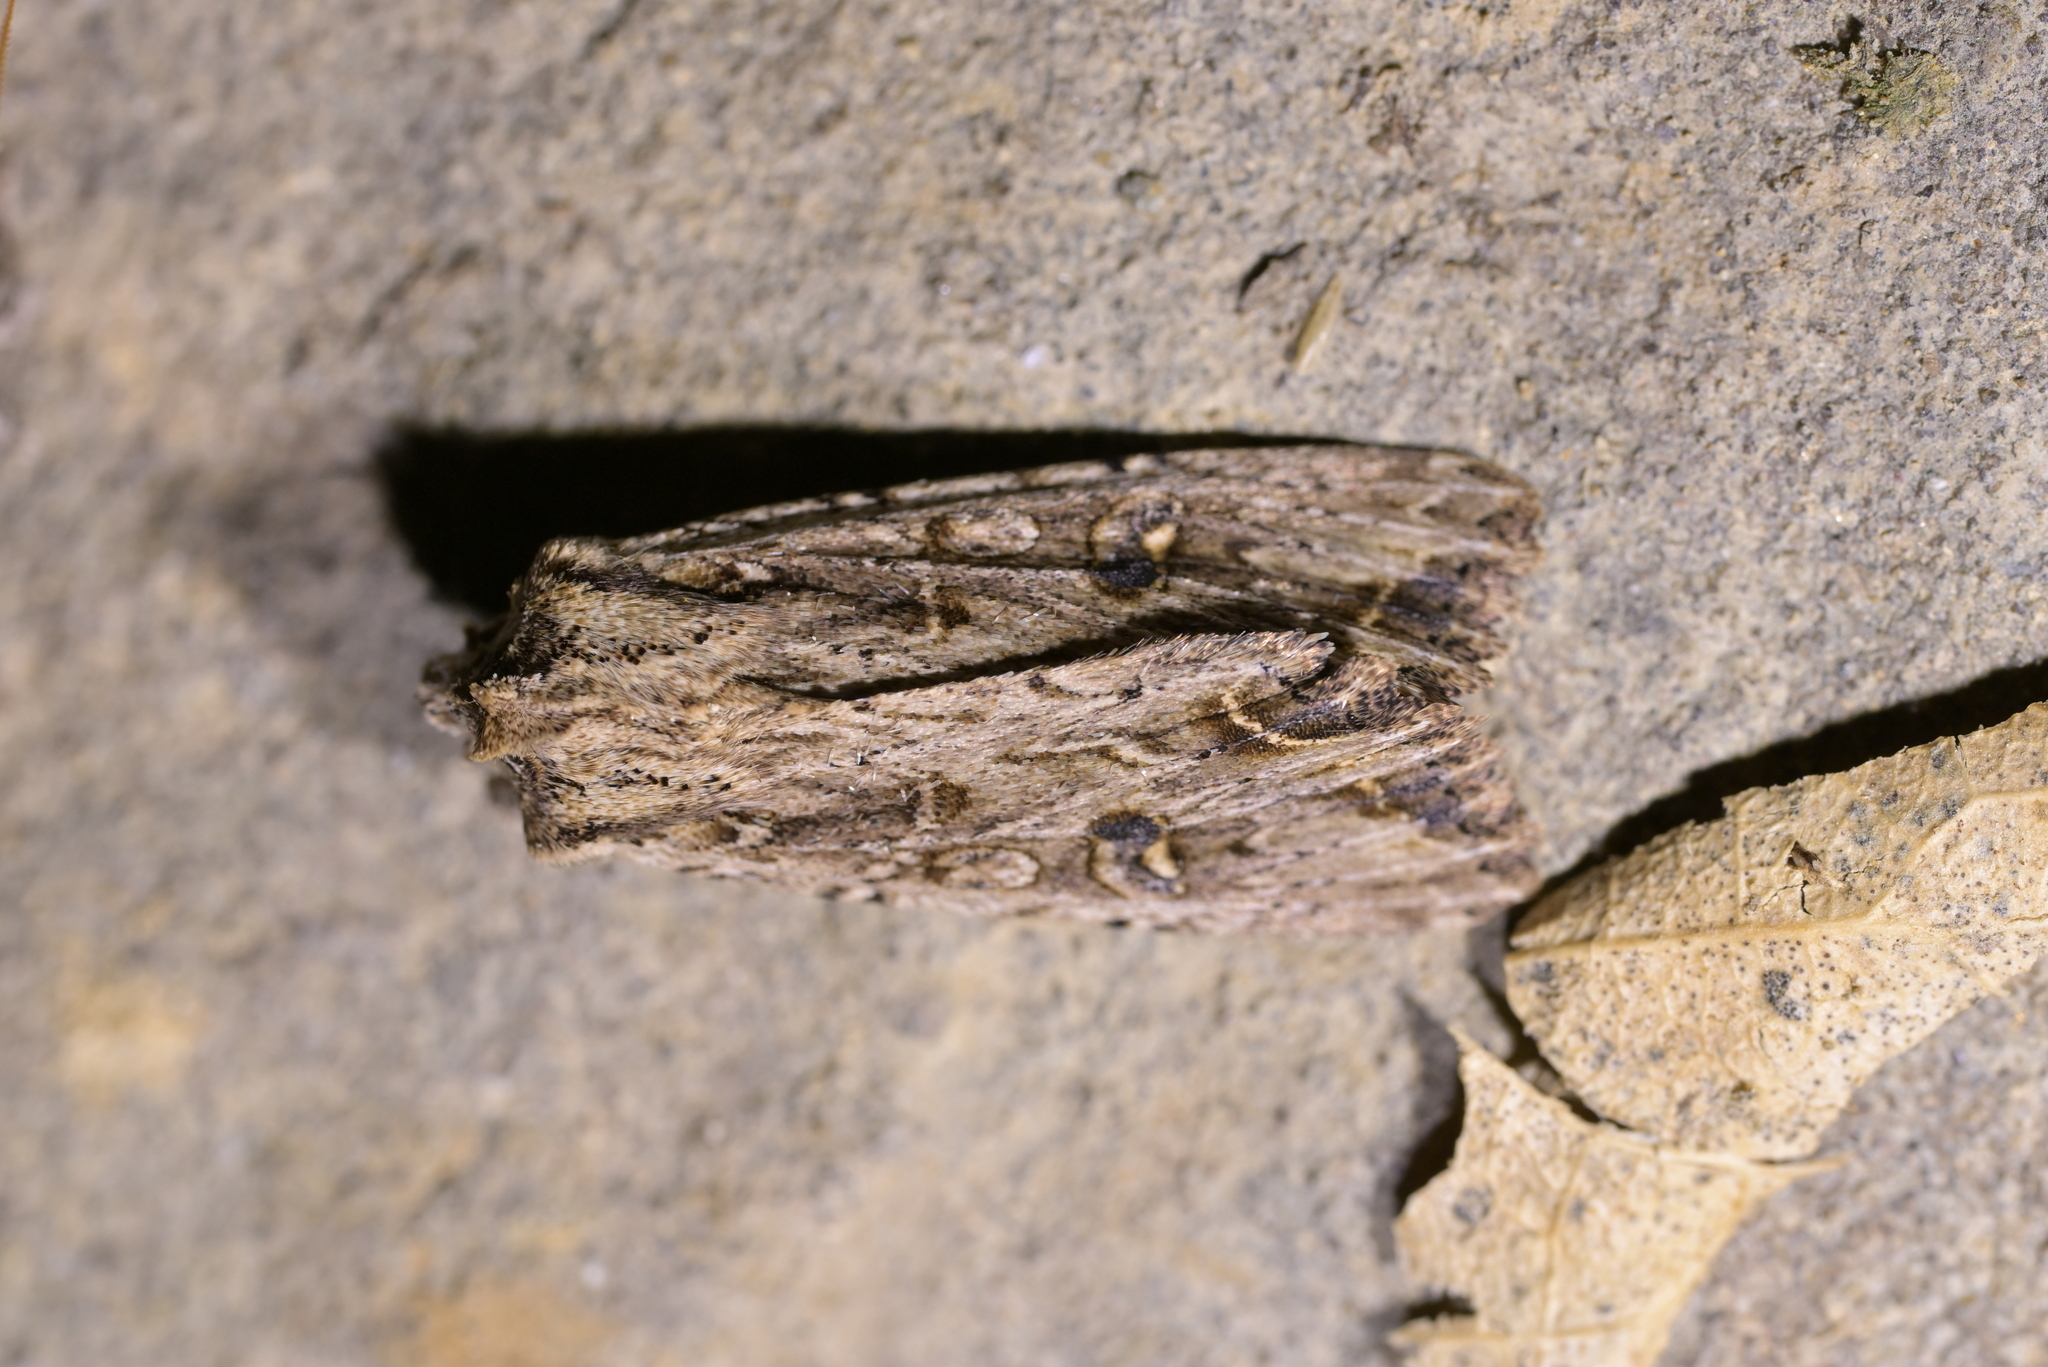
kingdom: Animalia
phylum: Arthropoda
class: Insecta
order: Lepidoptera
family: Noctuidae
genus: Ichneutica
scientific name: Ichneutica lignana
